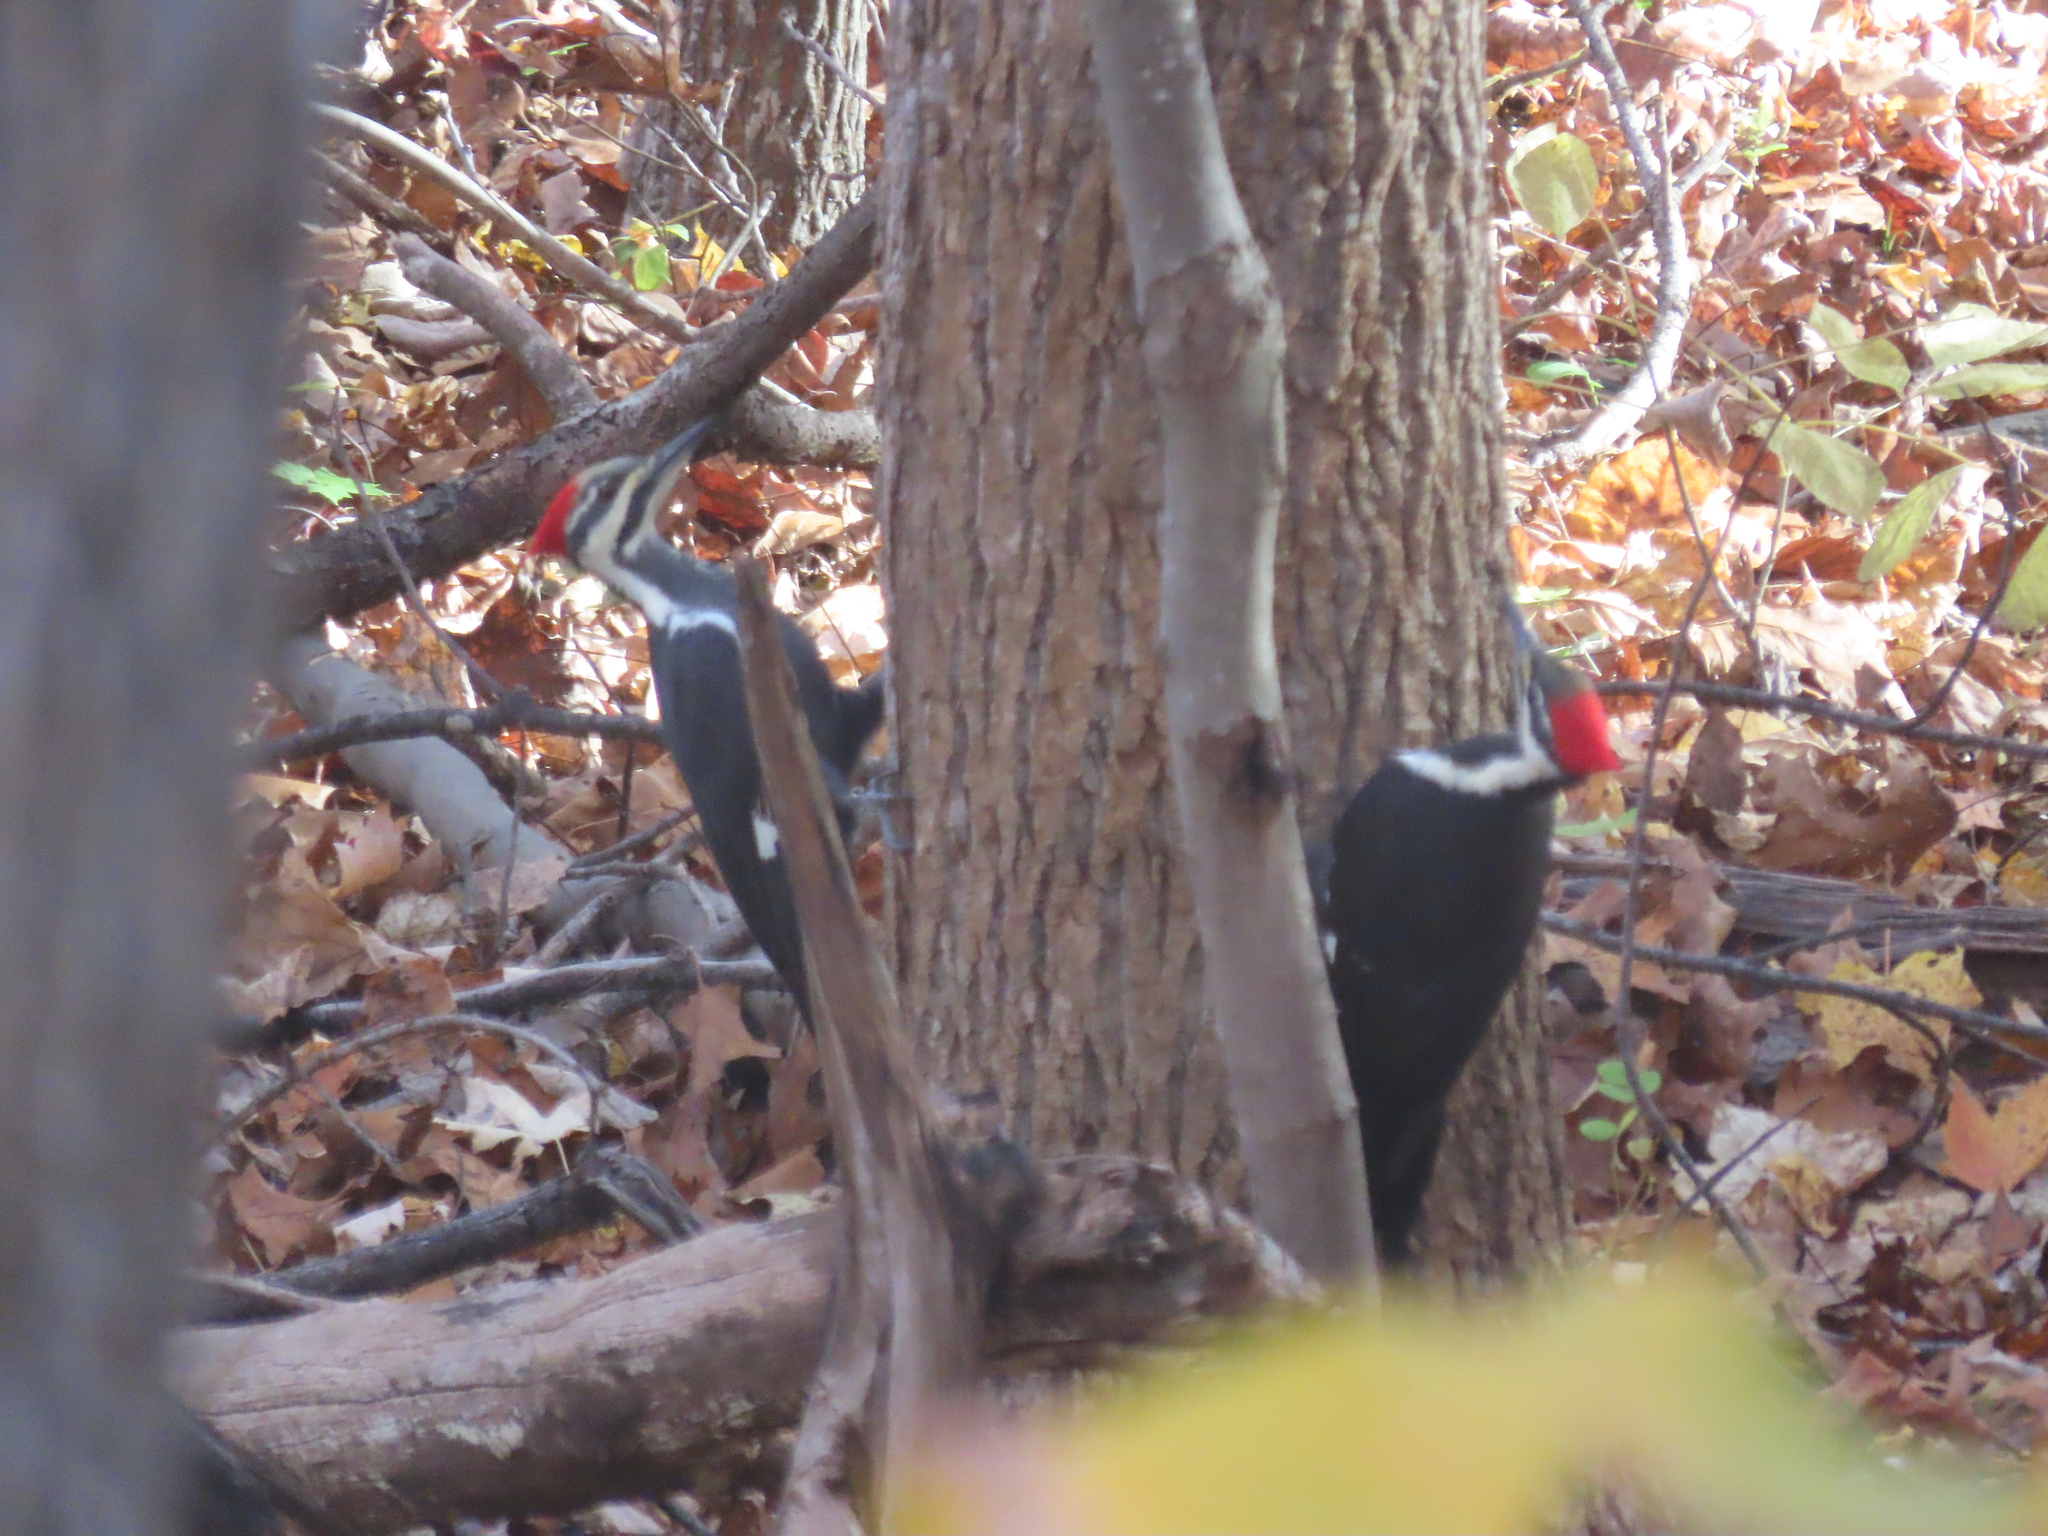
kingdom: Animalia
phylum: Chordata
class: Aves
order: Piciformes
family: Picidae
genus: Dryocopus
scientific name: Dryocopus pileatus
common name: Pileated woodpecker
